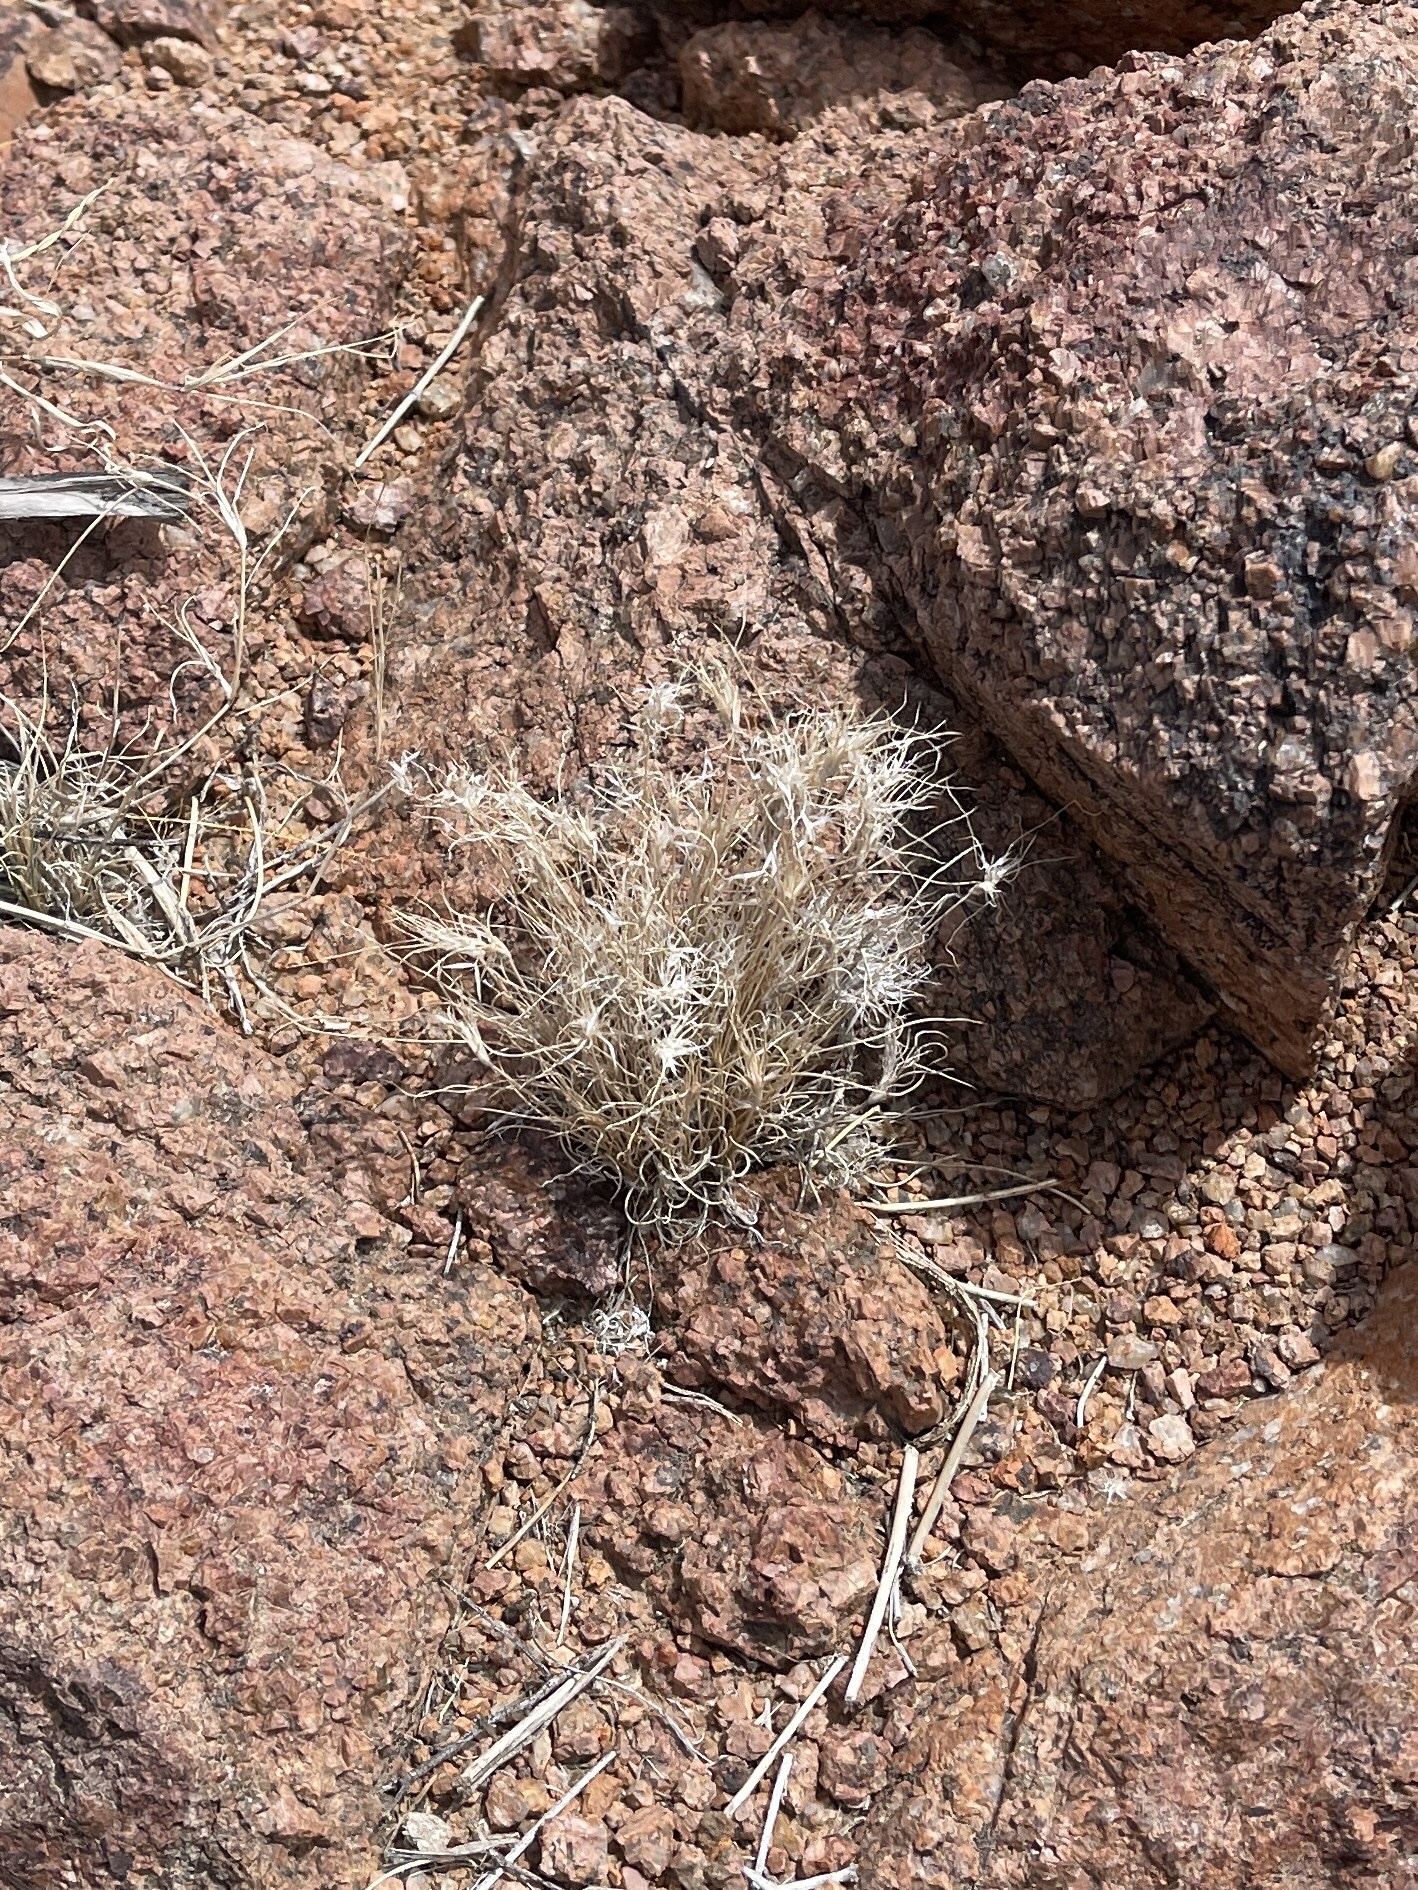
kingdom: Plantae
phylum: Tracheophyta
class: Liliopsida
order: Poales
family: Poaceae
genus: Dasyochloa
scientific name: Dasyochloa pulchella
